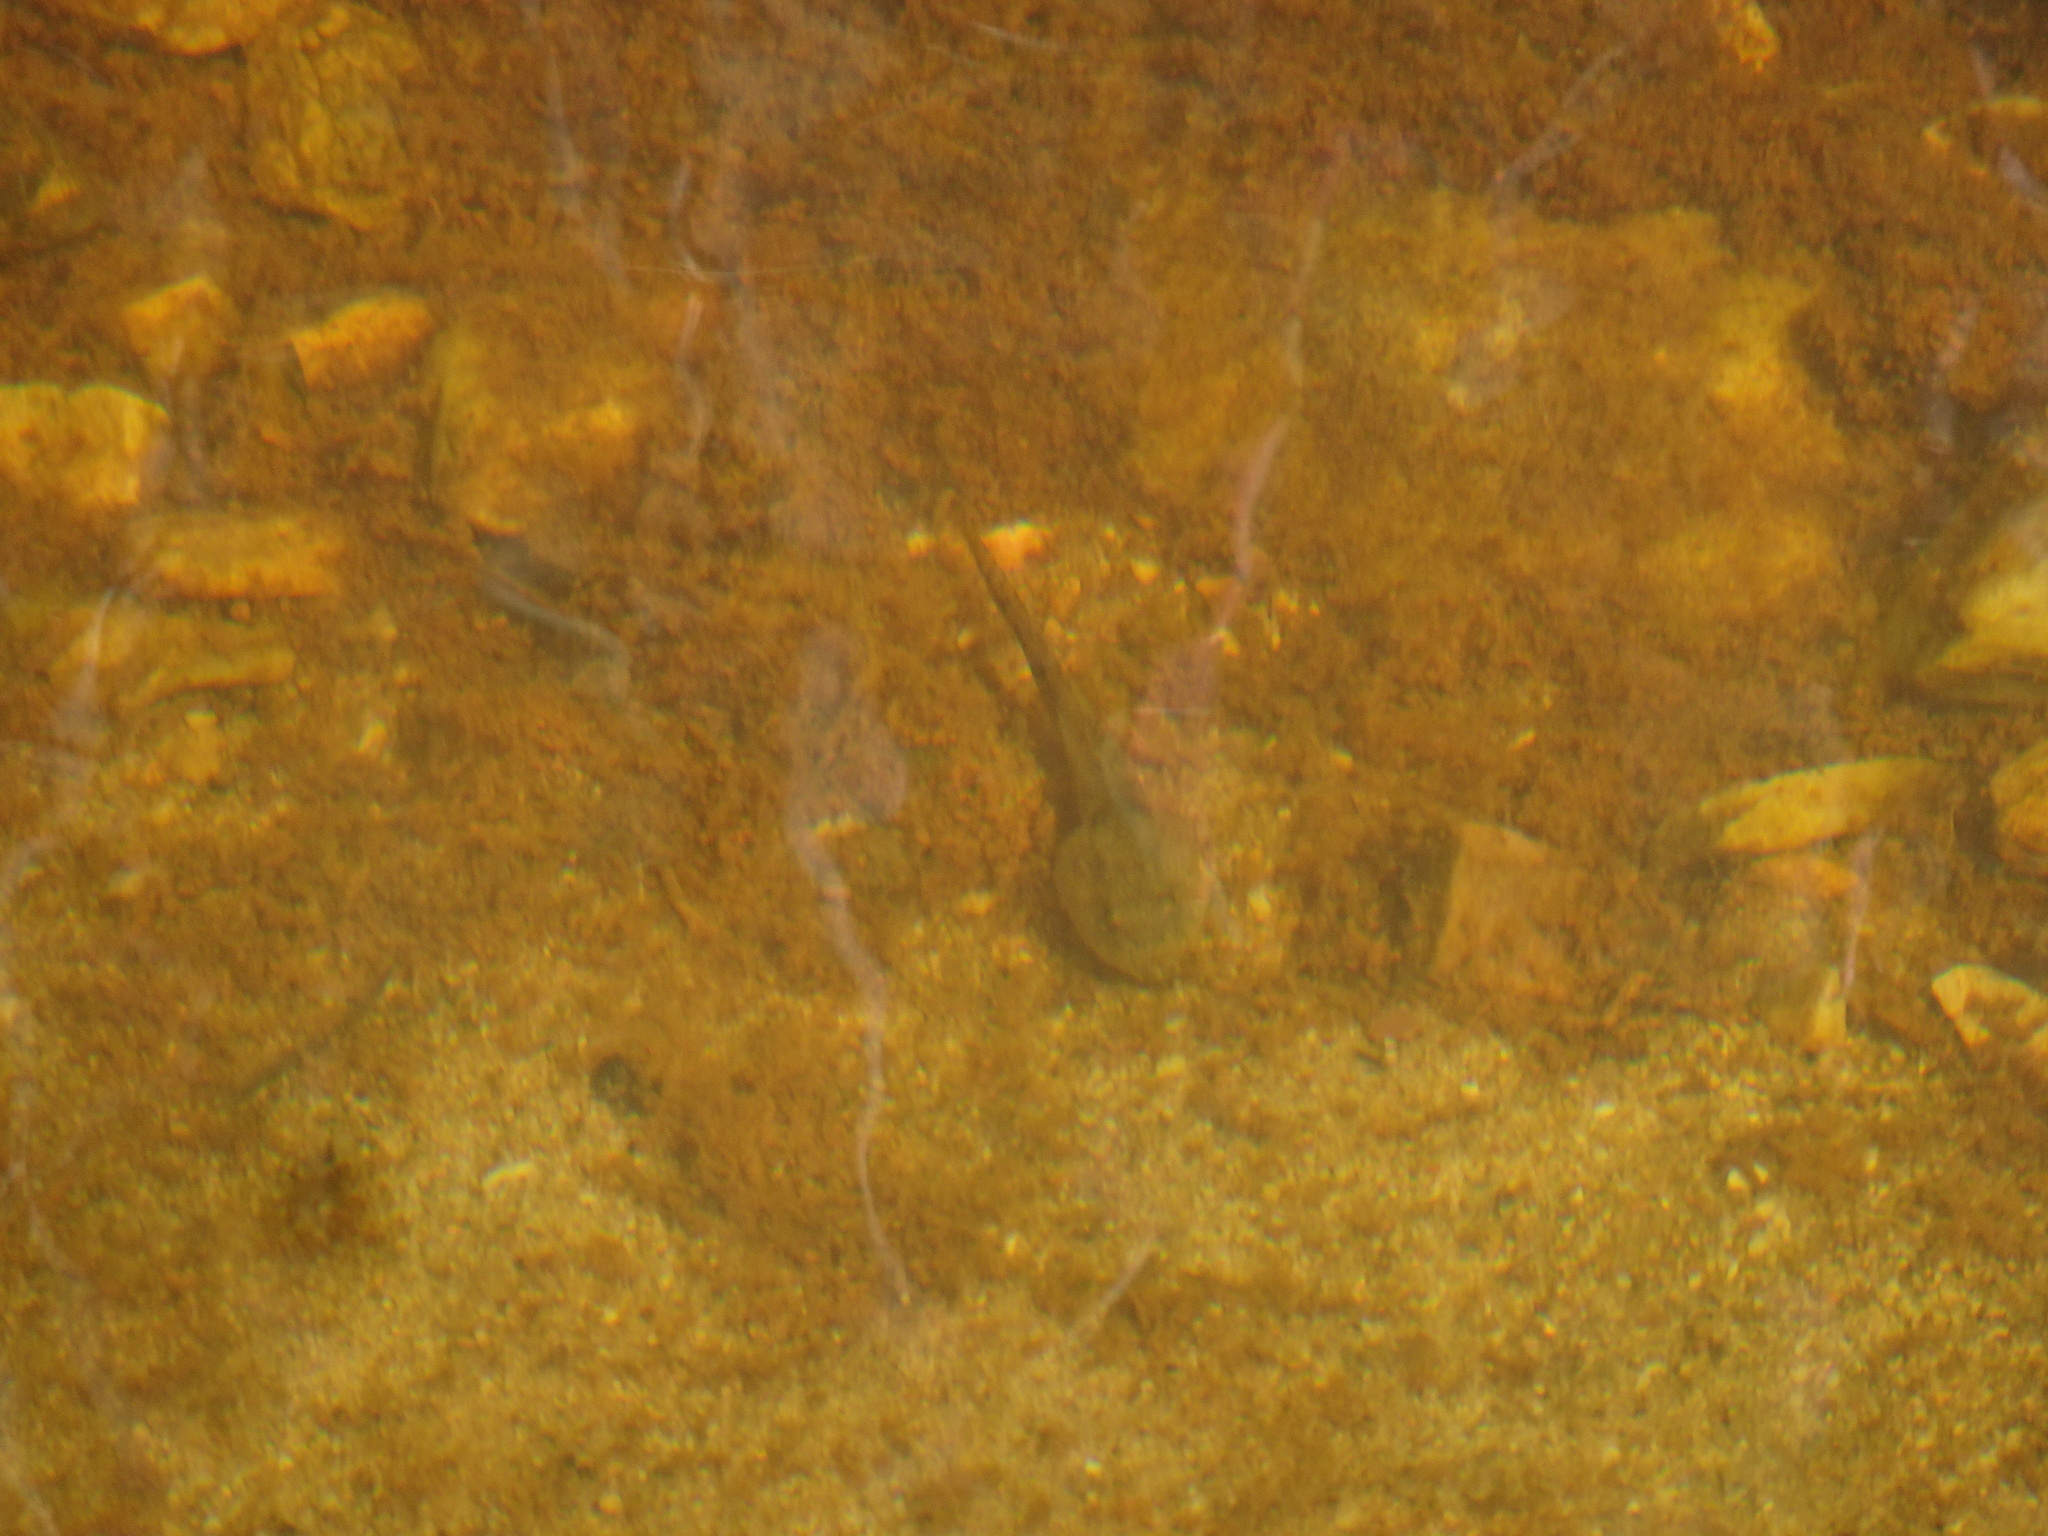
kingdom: Animalia
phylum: Chordata
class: Amphibia
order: Anura
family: Pyxicephalidae
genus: Amietia
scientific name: Amietia fuscigula
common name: Cape rana
